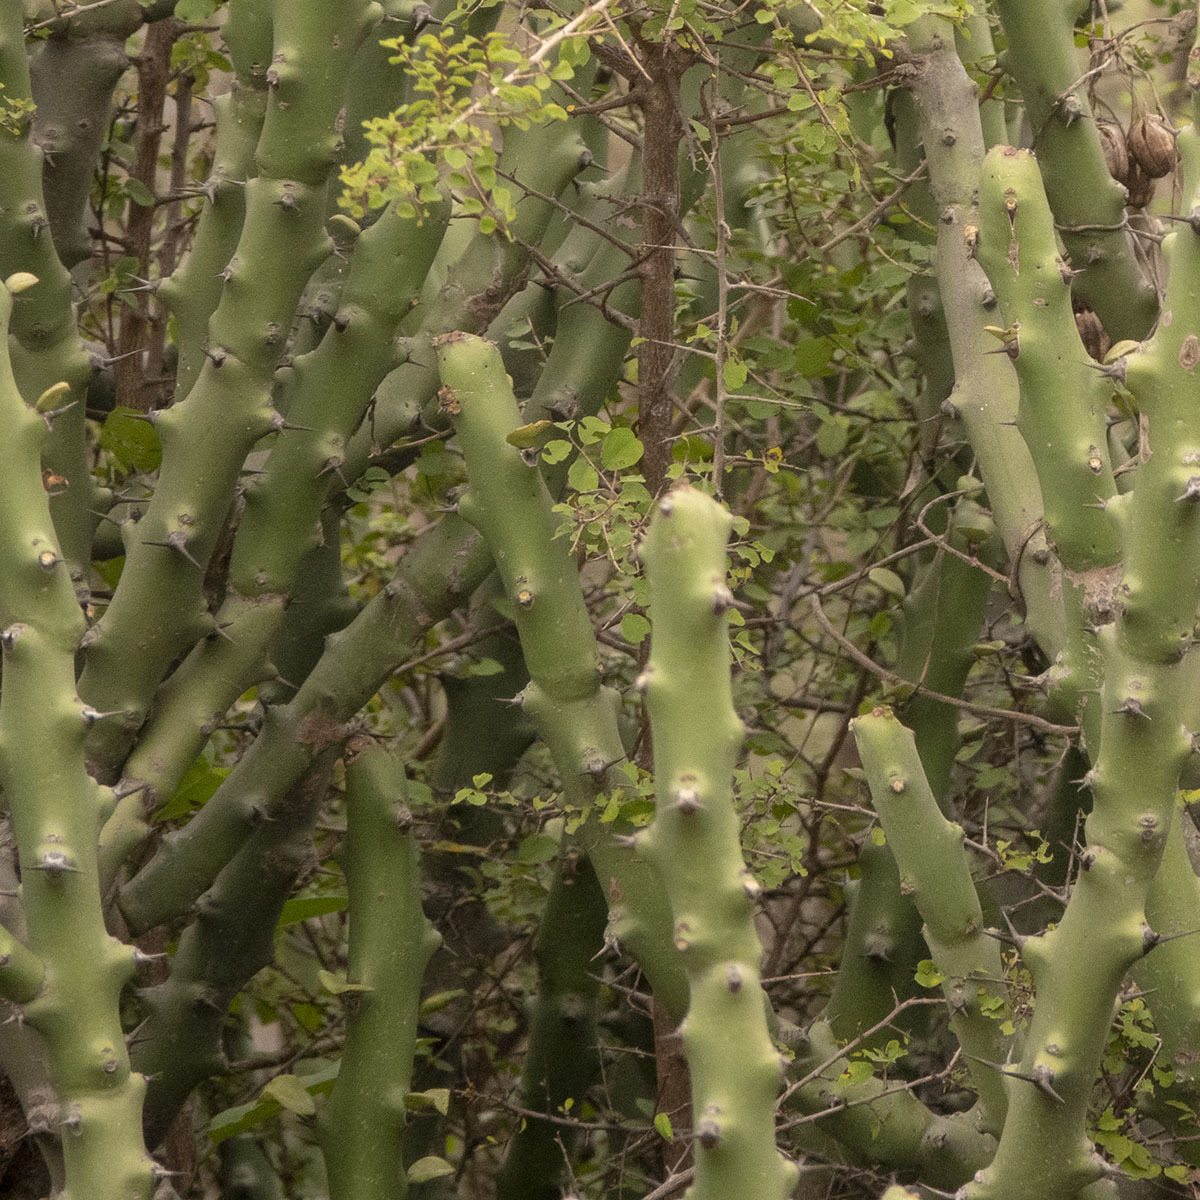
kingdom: Plantae
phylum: Tracheophyta
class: Magnoliopsida
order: Malpighiales
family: Euphorbiaceae
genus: Euphorbia
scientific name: Euphorbia caducifolia
